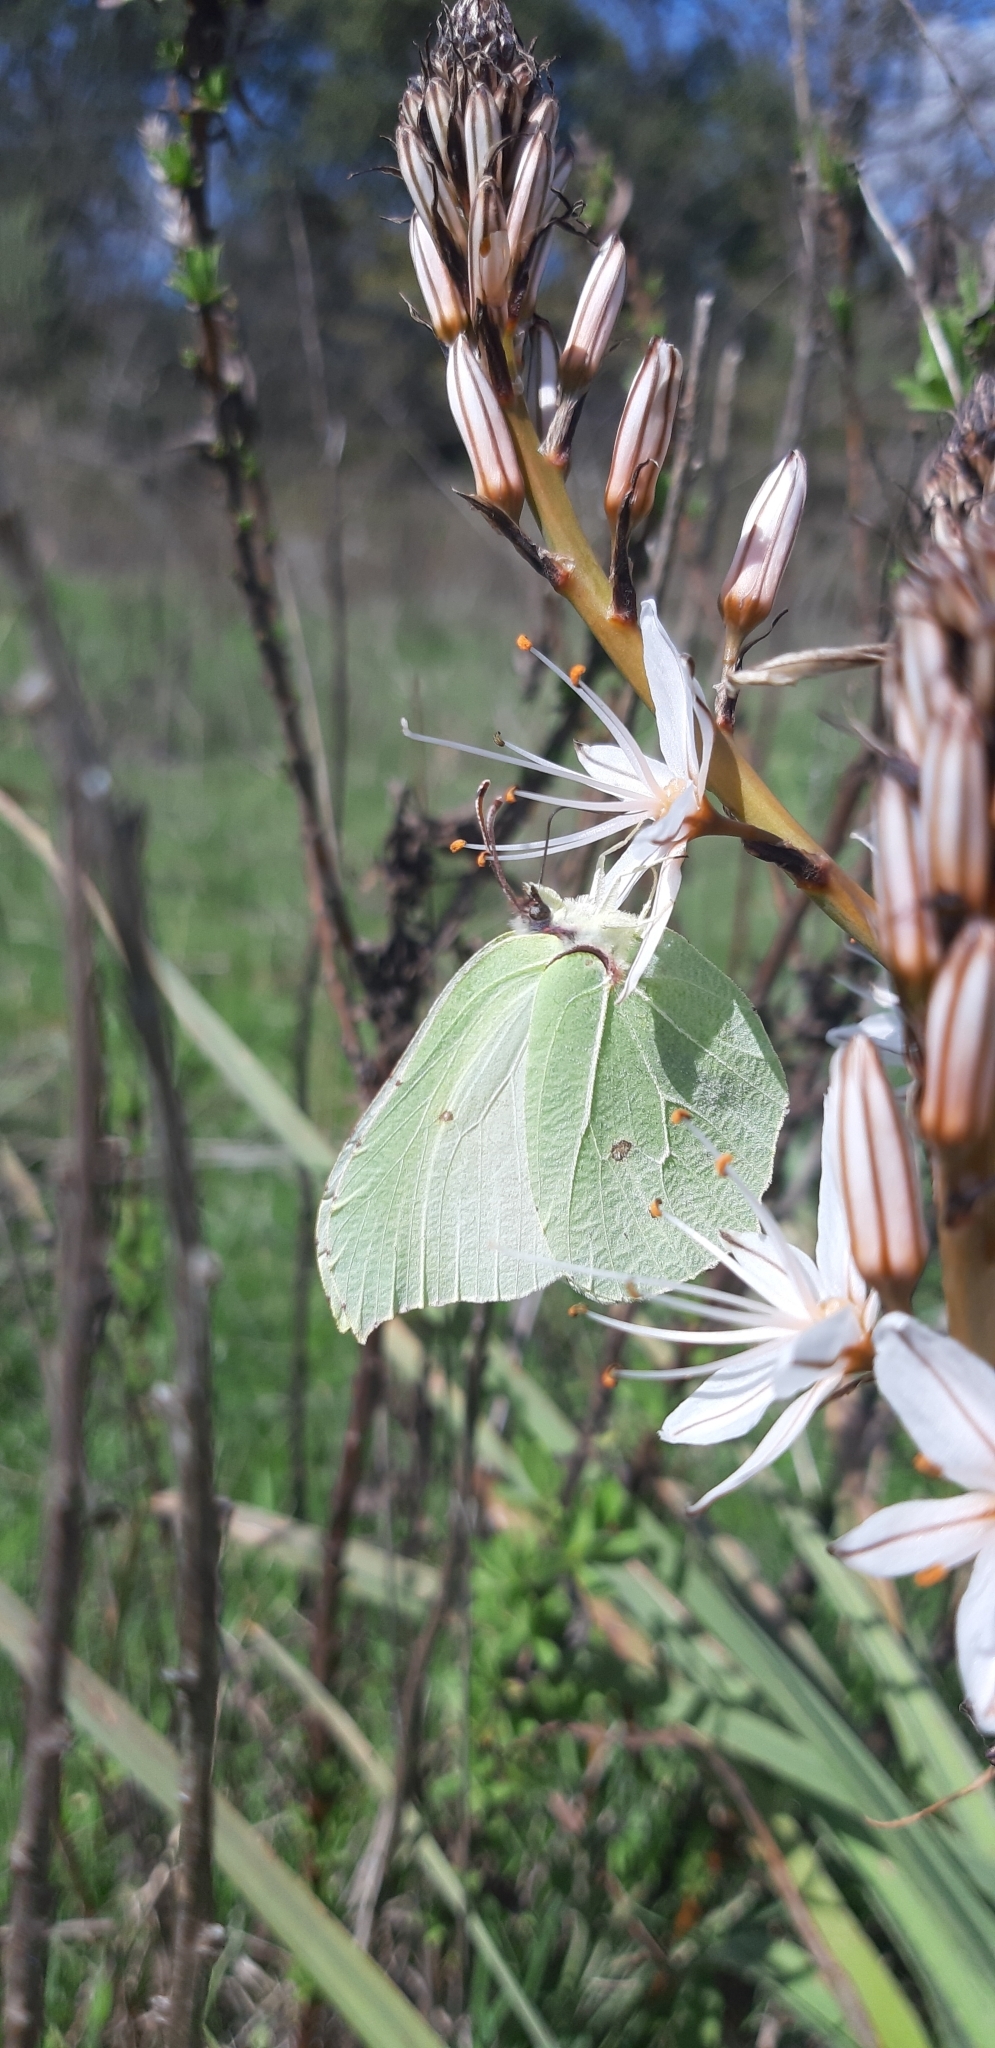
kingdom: Animalia
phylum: Arthropoda
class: Insecta
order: Lepidoptera
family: Pieridae
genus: Gonepteryx
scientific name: Gonepteryx rhamni
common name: Brimstone
